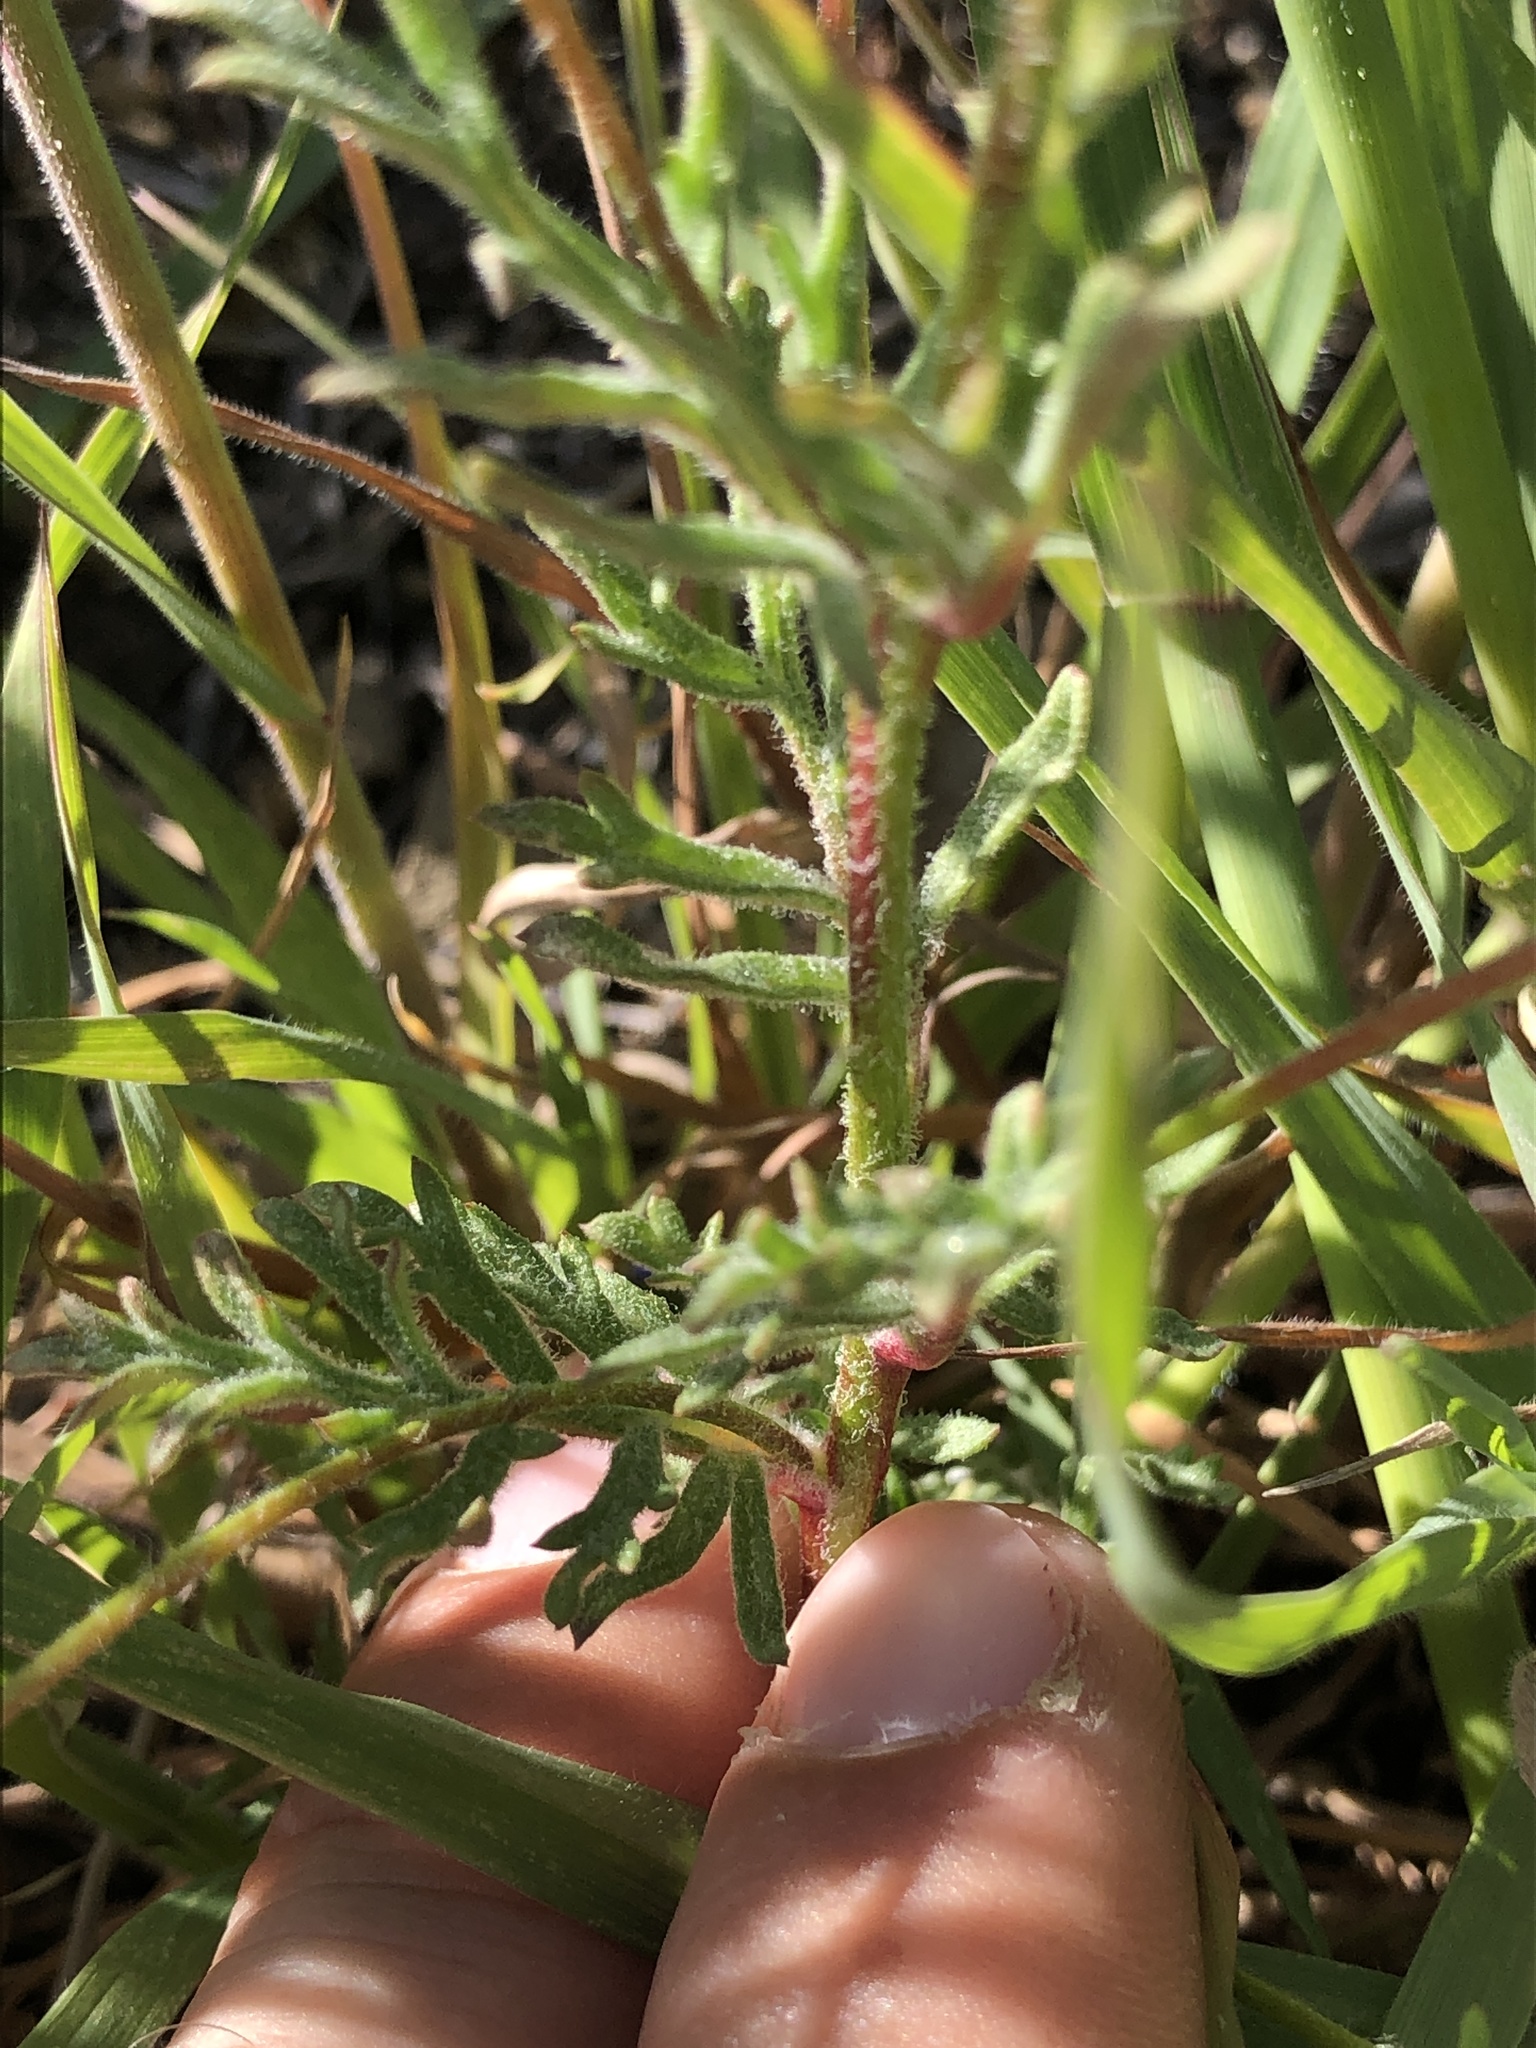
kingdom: Plantae
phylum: Tracheophyta
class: Magnoliopsida
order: Ericales
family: Polemoniaceae
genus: Gilia
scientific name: Gilia achilleifolia
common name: California gily-flower
